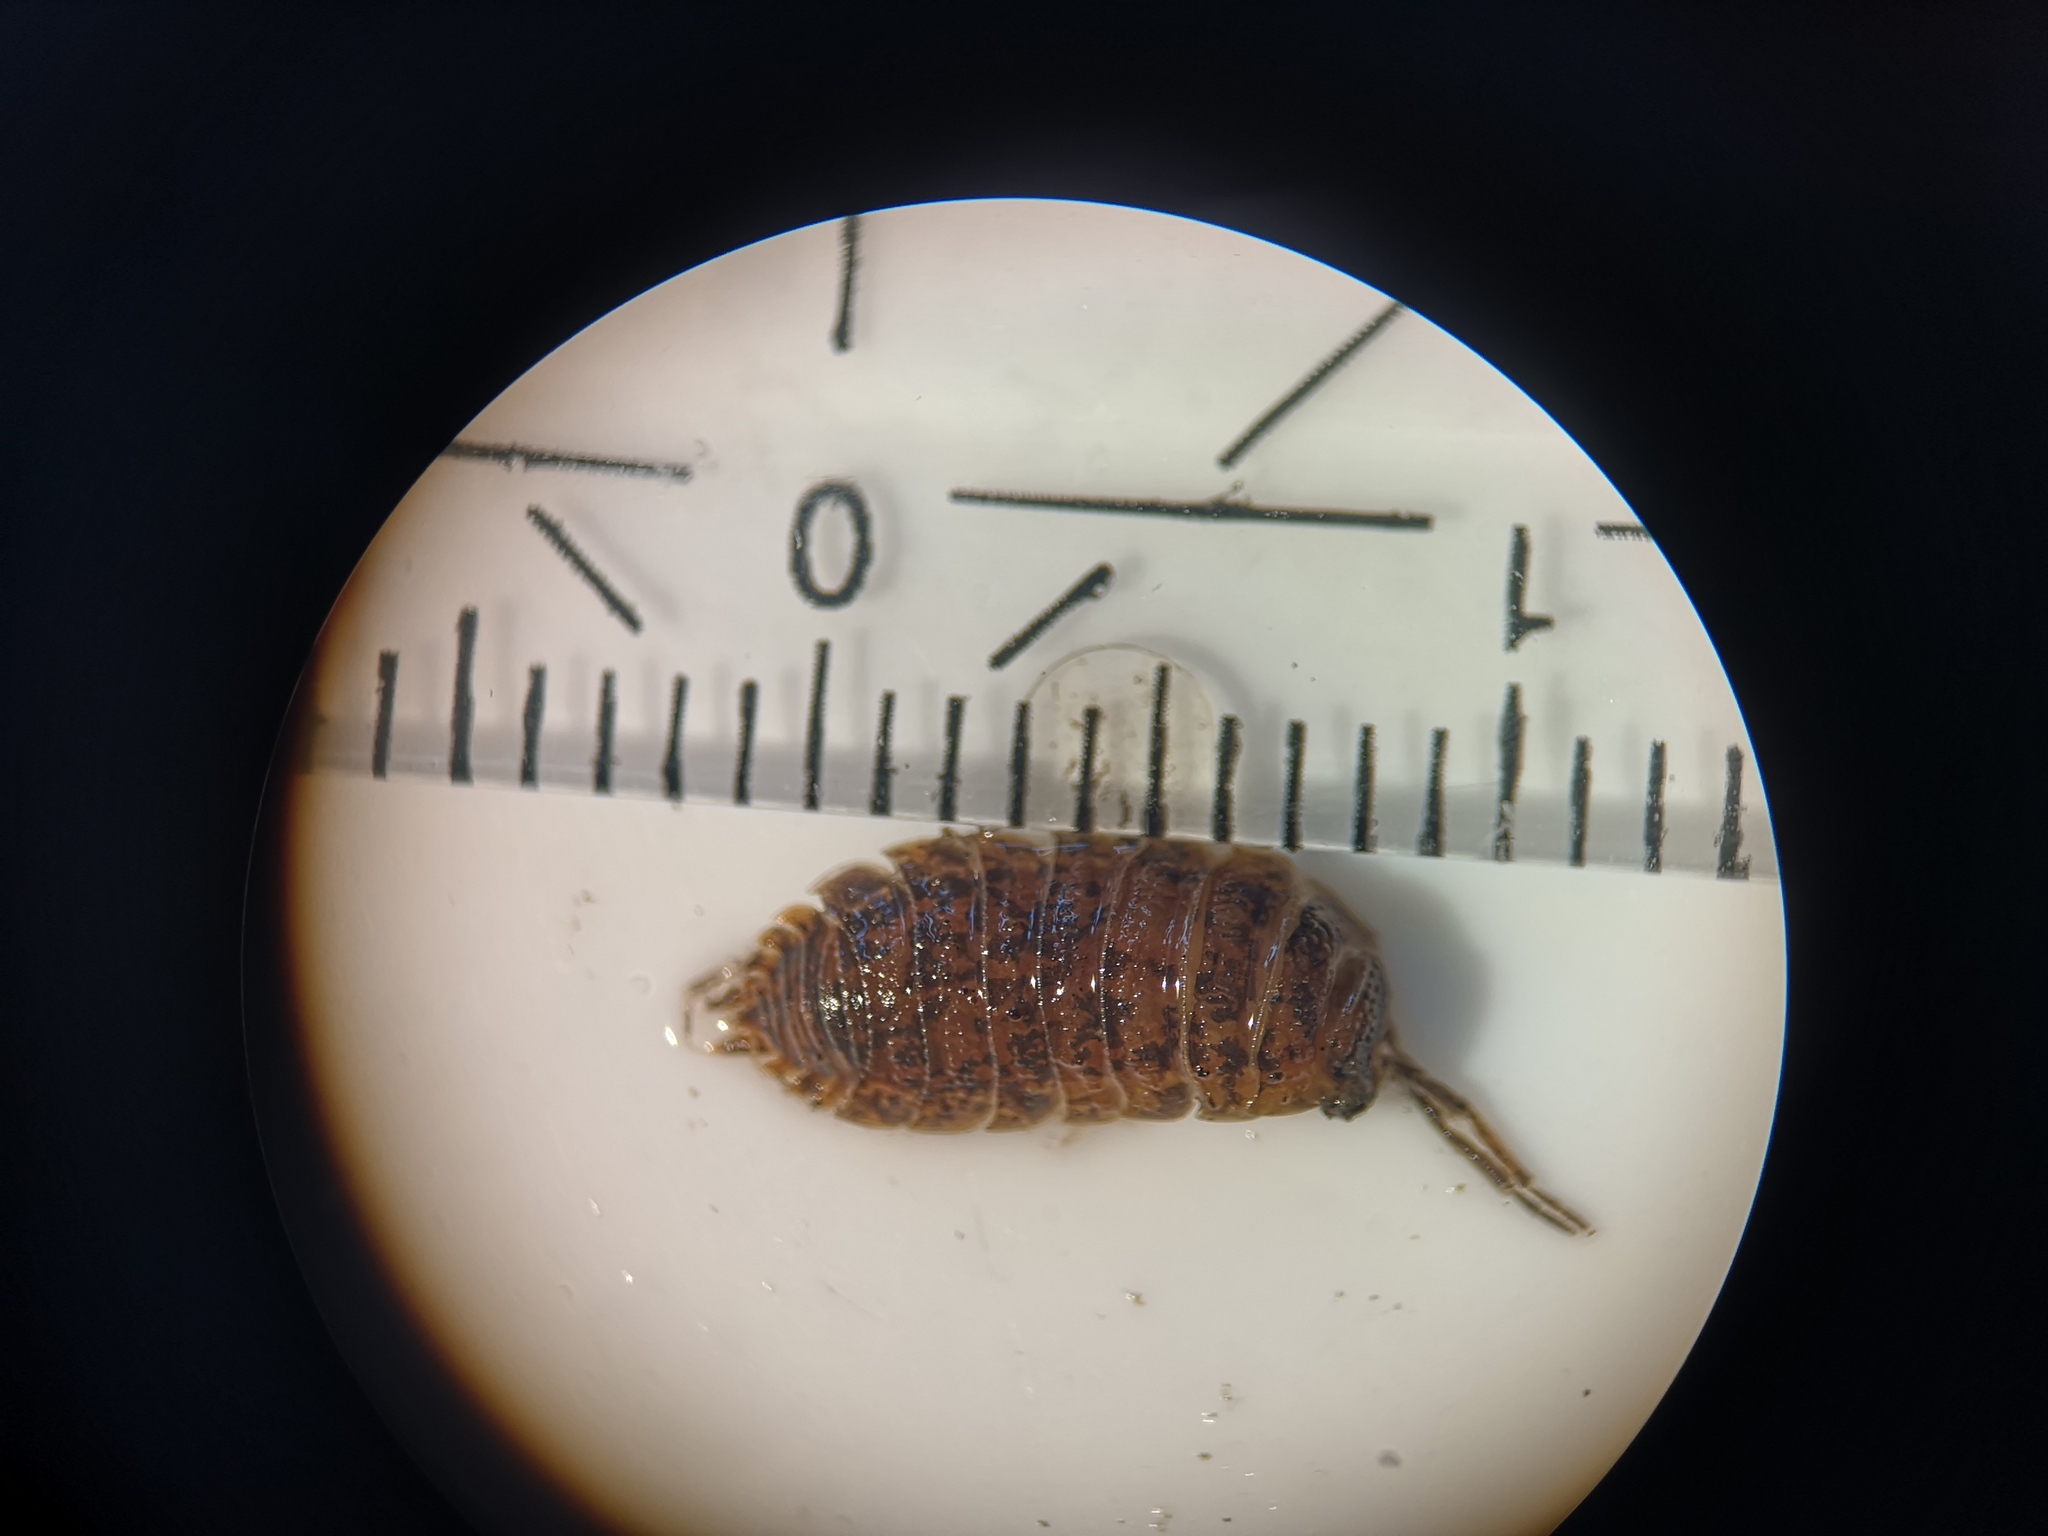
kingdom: Animalia
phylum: Arthropoda
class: Malacostraca
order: Isopoda
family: Porcellionidae
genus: Porcellio
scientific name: Porcellio scaber
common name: Common rough woodlouse
